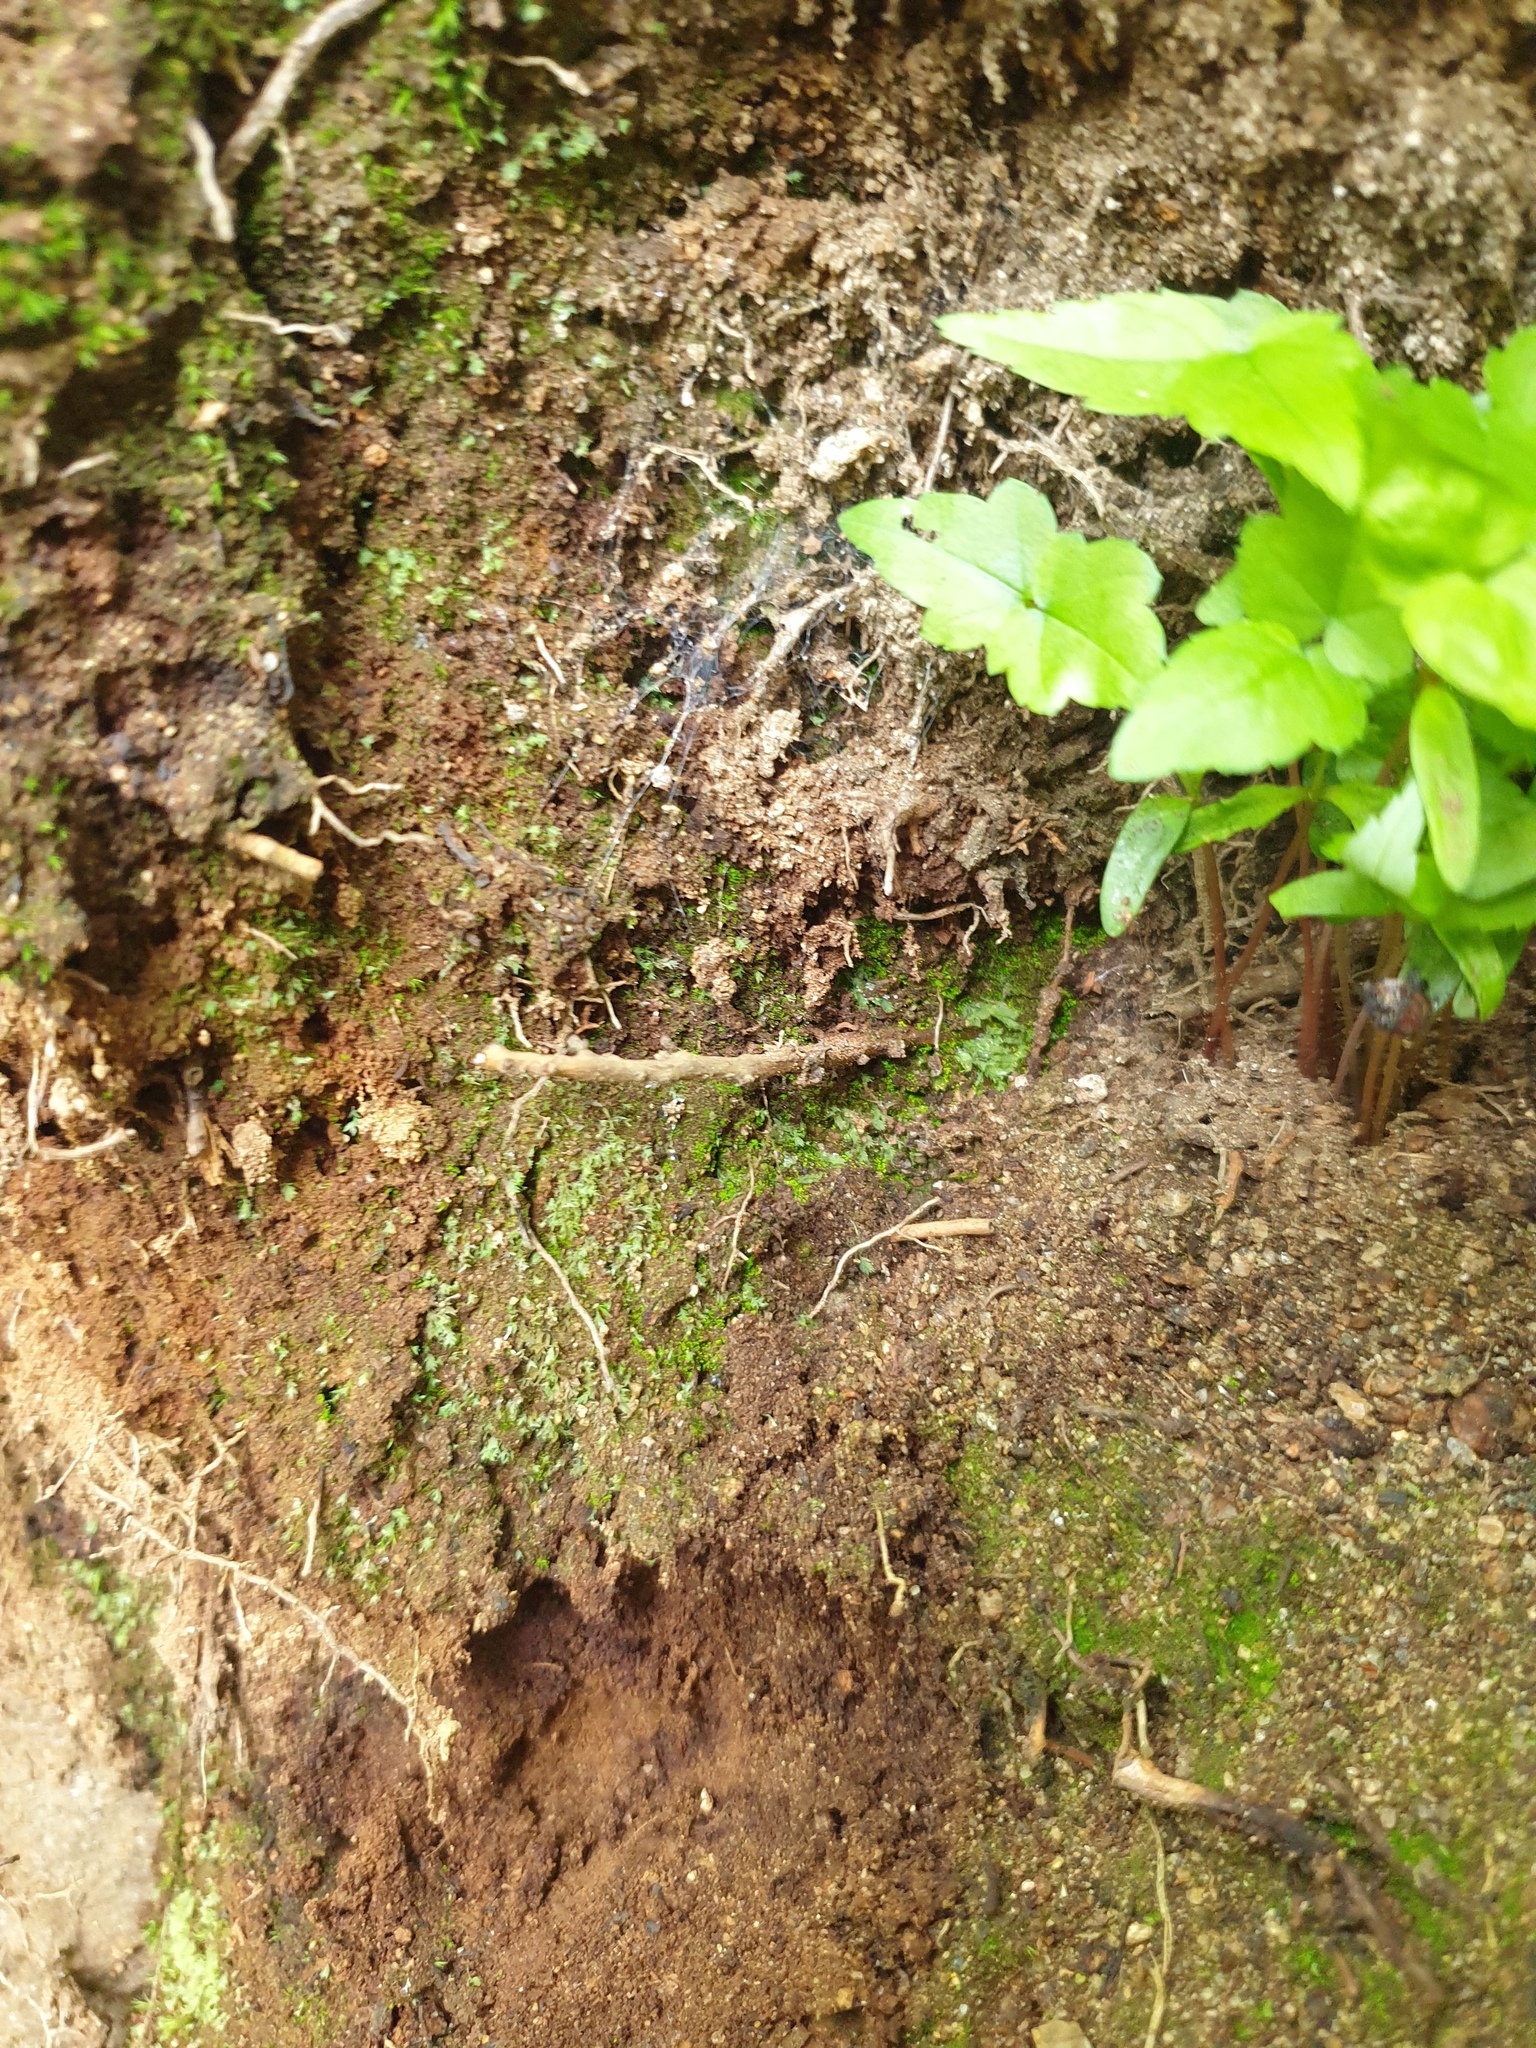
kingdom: Plantae
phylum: Bryophyta
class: Bryopsida
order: Dicranales
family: Schistostegaceae
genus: Schistostega
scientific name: Schistostega pennata
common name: Luminous moss
